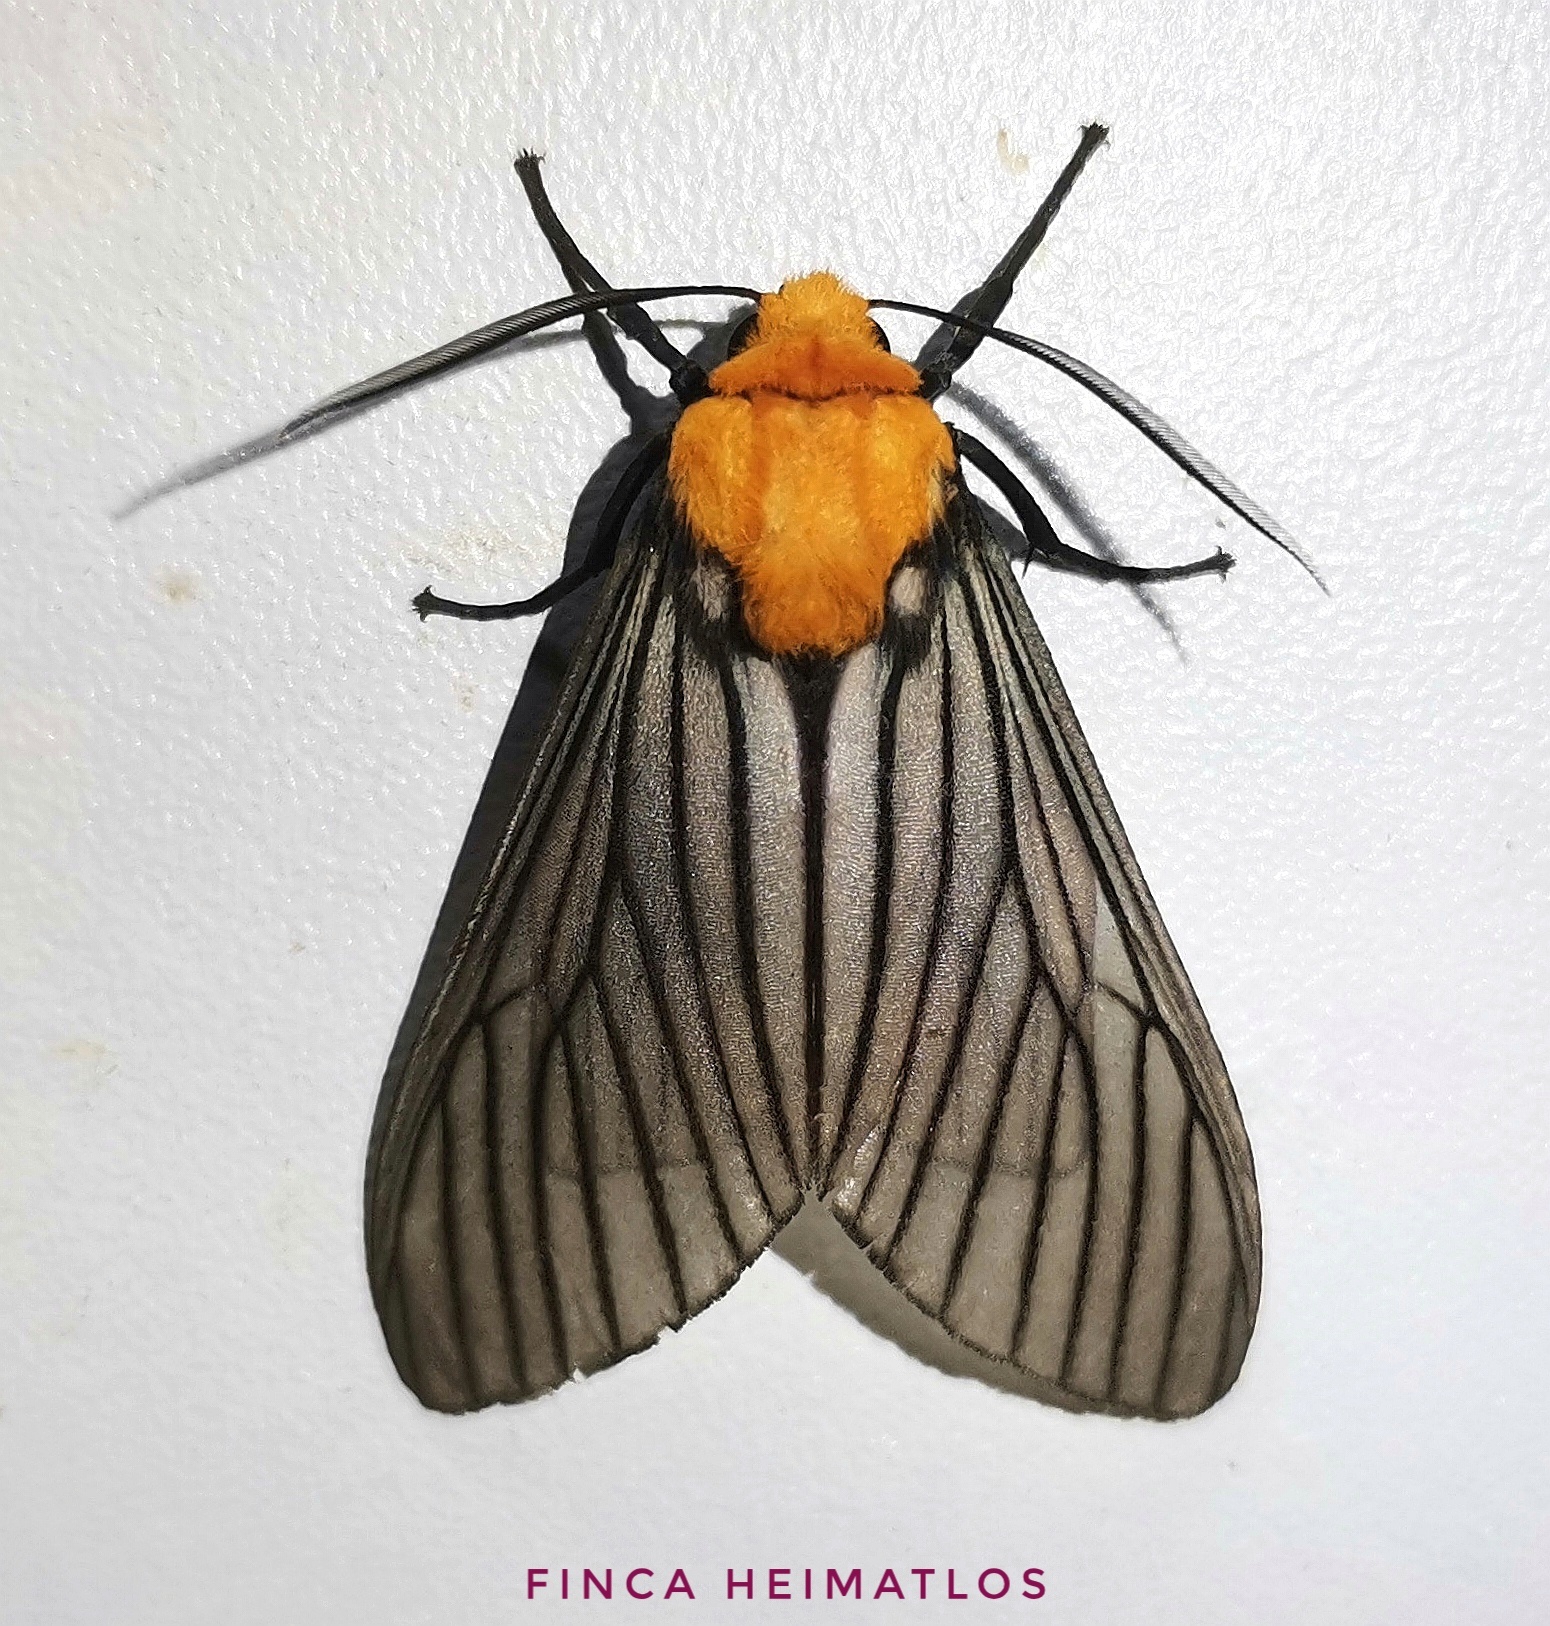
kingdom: Animalia
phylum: Arthropoda
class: Insecta
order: Lepidoptera
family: Erebidae
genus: Pseudischnocampa
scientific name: Pseudischnocampa humosa
